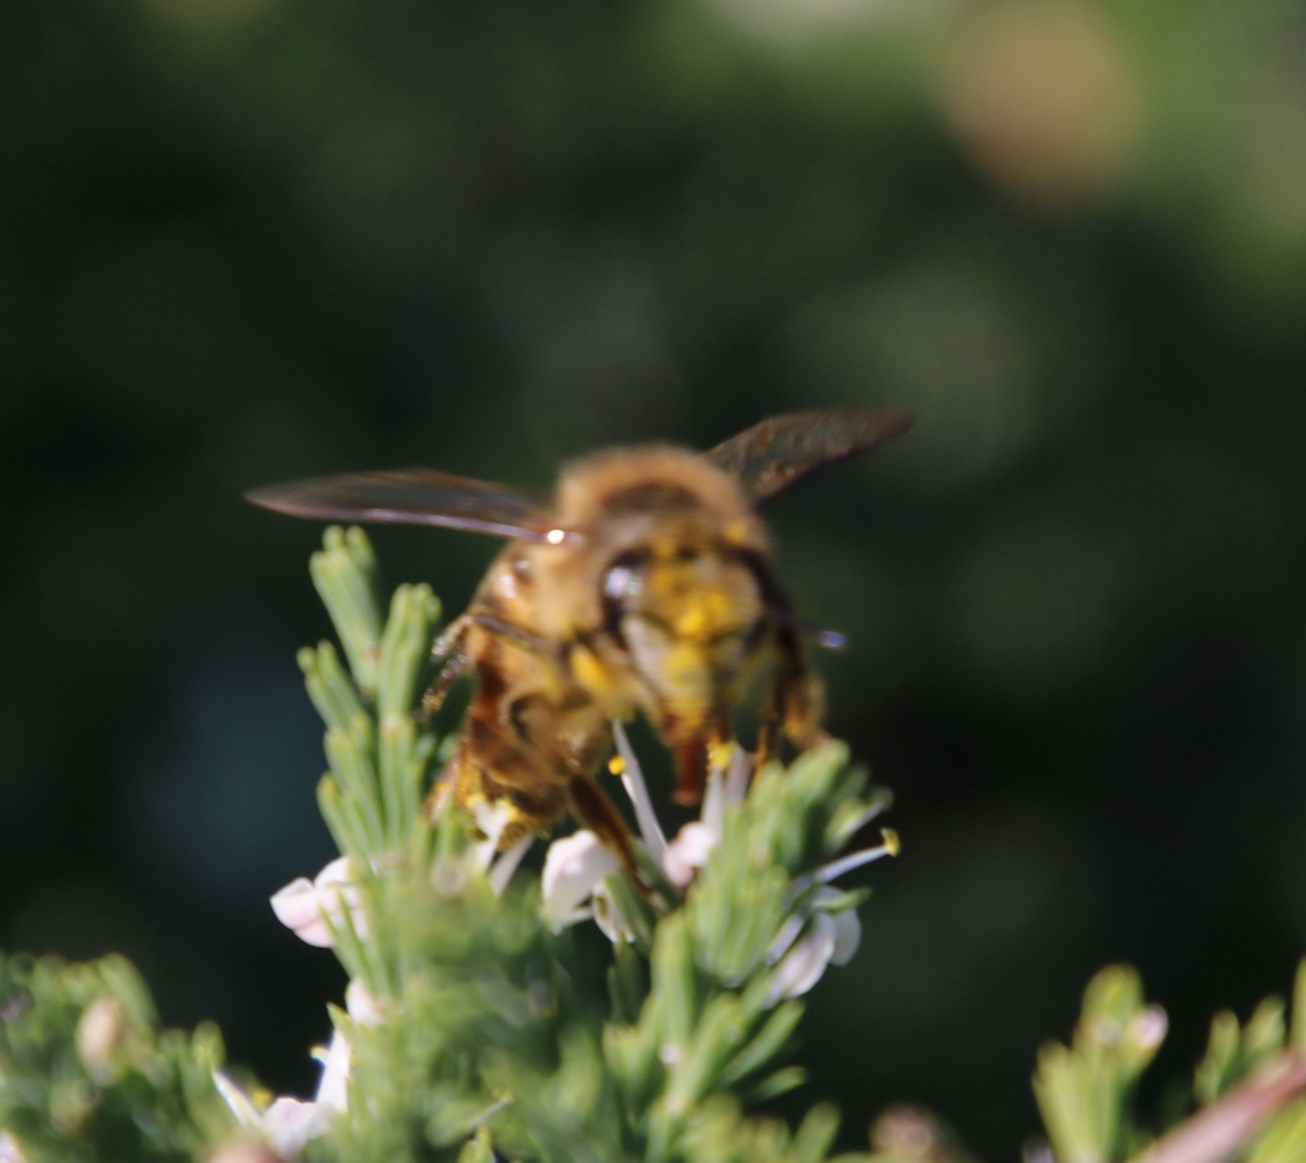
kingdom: Animalia
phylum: Arthropoda
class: Insecta
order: Hymenoptera
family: Apidae
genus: Apis
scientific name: Apis mellifera
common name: Honey bee
